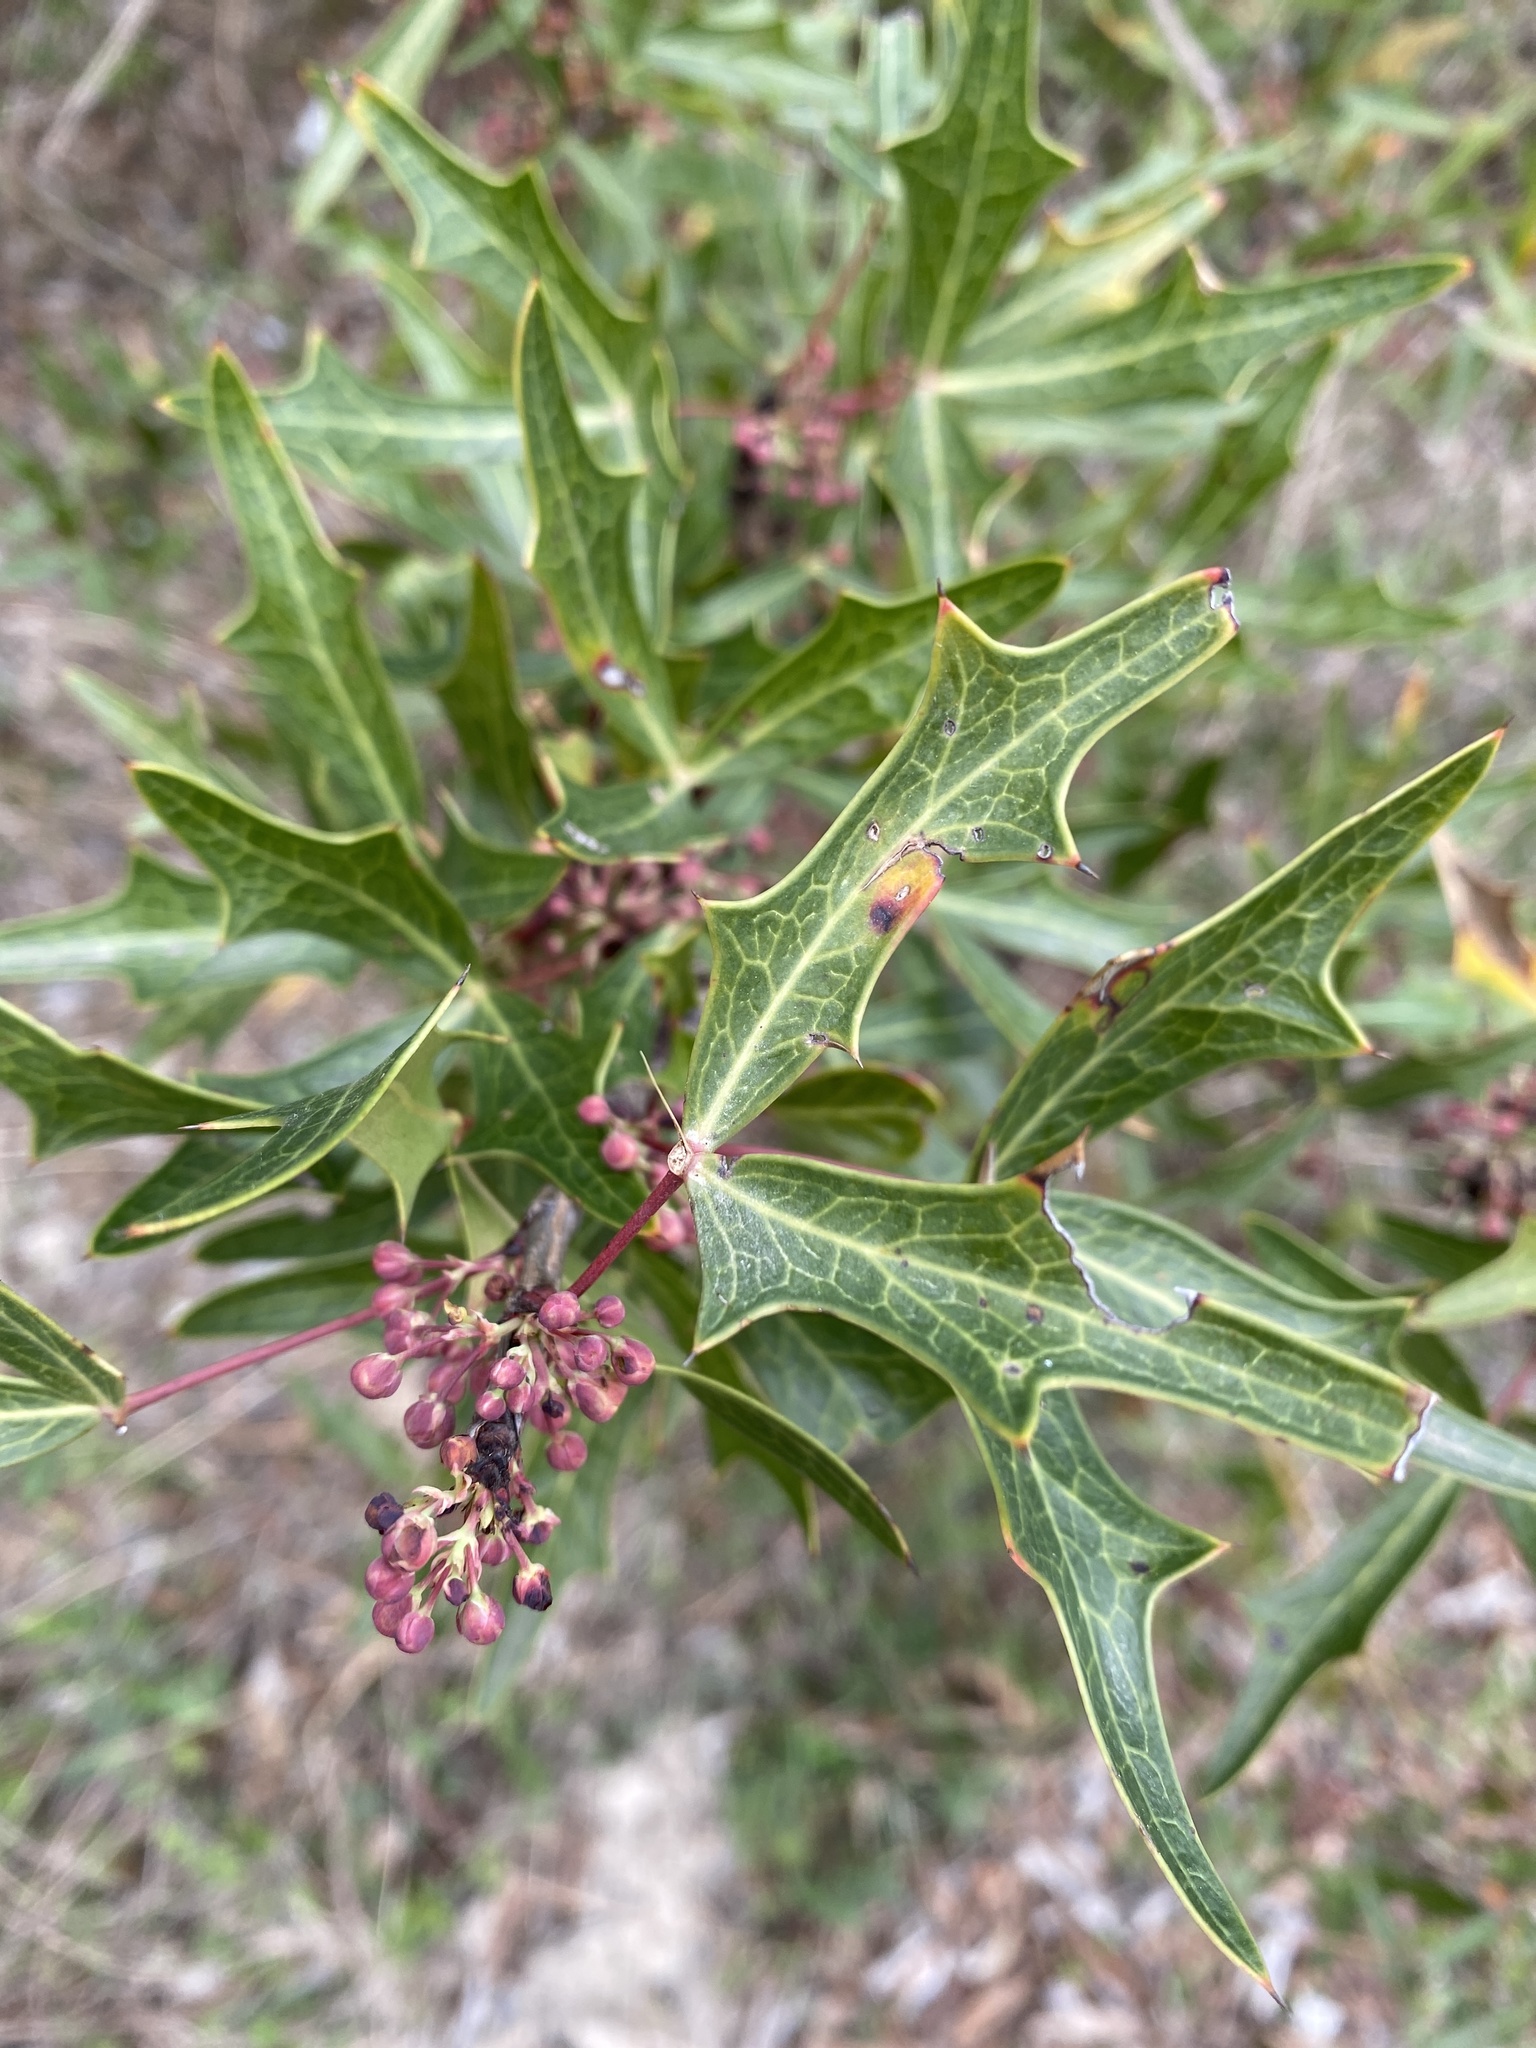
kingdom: Plantae
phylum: Tracheophyta
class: Magnoliopsida
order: Ranunculales
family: Berberidaceae
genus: Alloberberis
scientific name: Alloberberis trifoliolata
